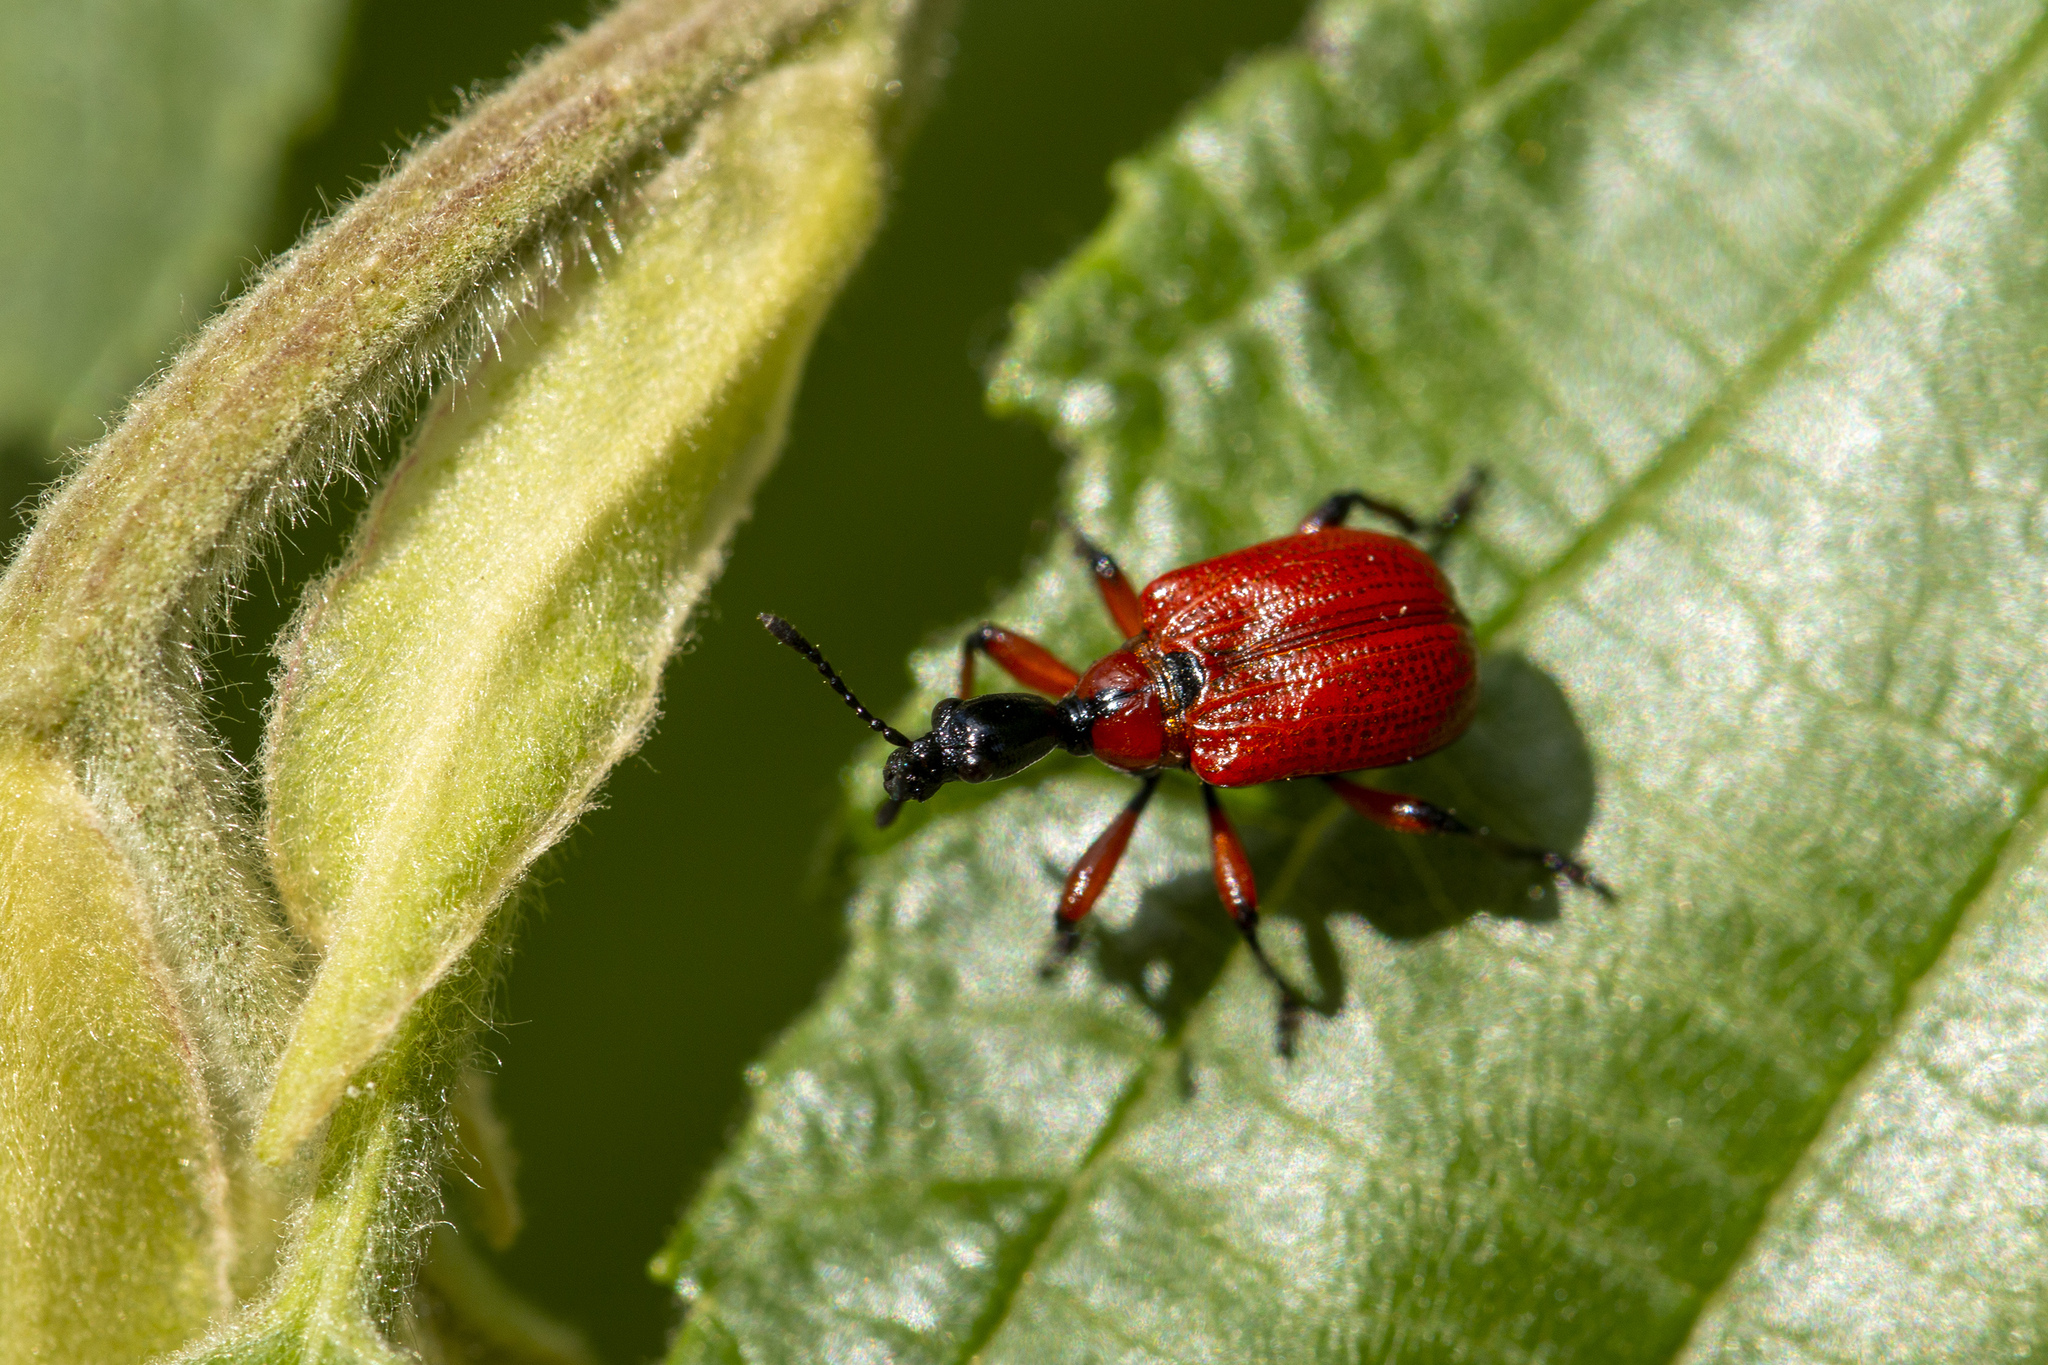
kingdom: Animalia
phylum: Arthropoda
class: Insecta
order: Coleoptera
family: Attelabidae
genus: Apoderus
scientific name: Apoderus coryli
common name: Hazel leaf roller
